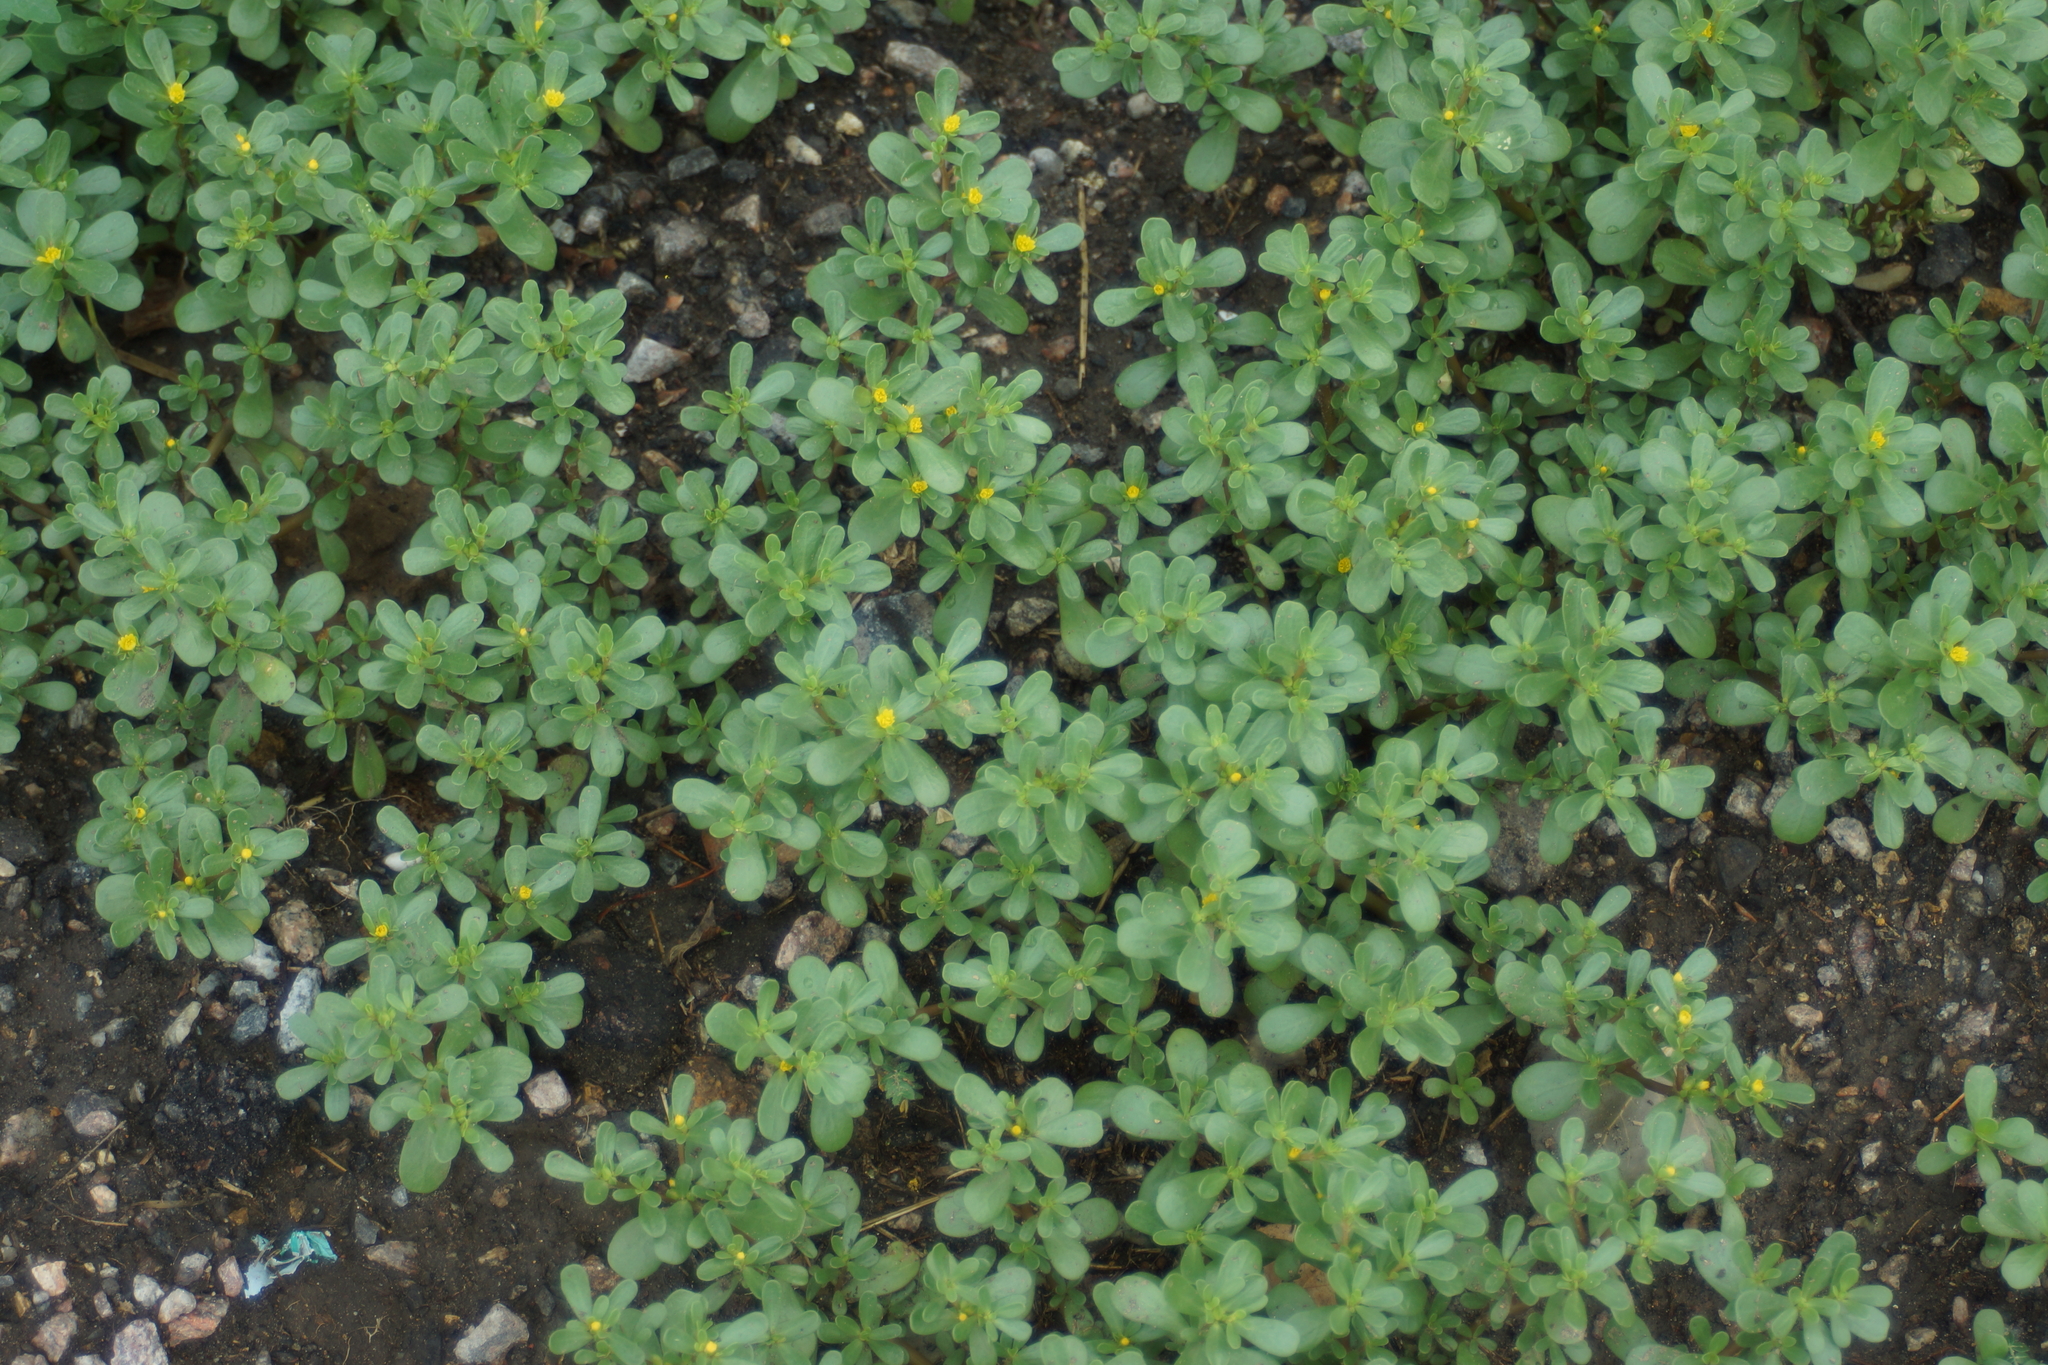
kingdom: Plantae
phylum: Tracheophyta
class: Magnoliopsida
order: Caryophyllales
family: Portulacaceae
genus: Portulaca
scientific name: Portulaca oleracea
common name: Common purslane
